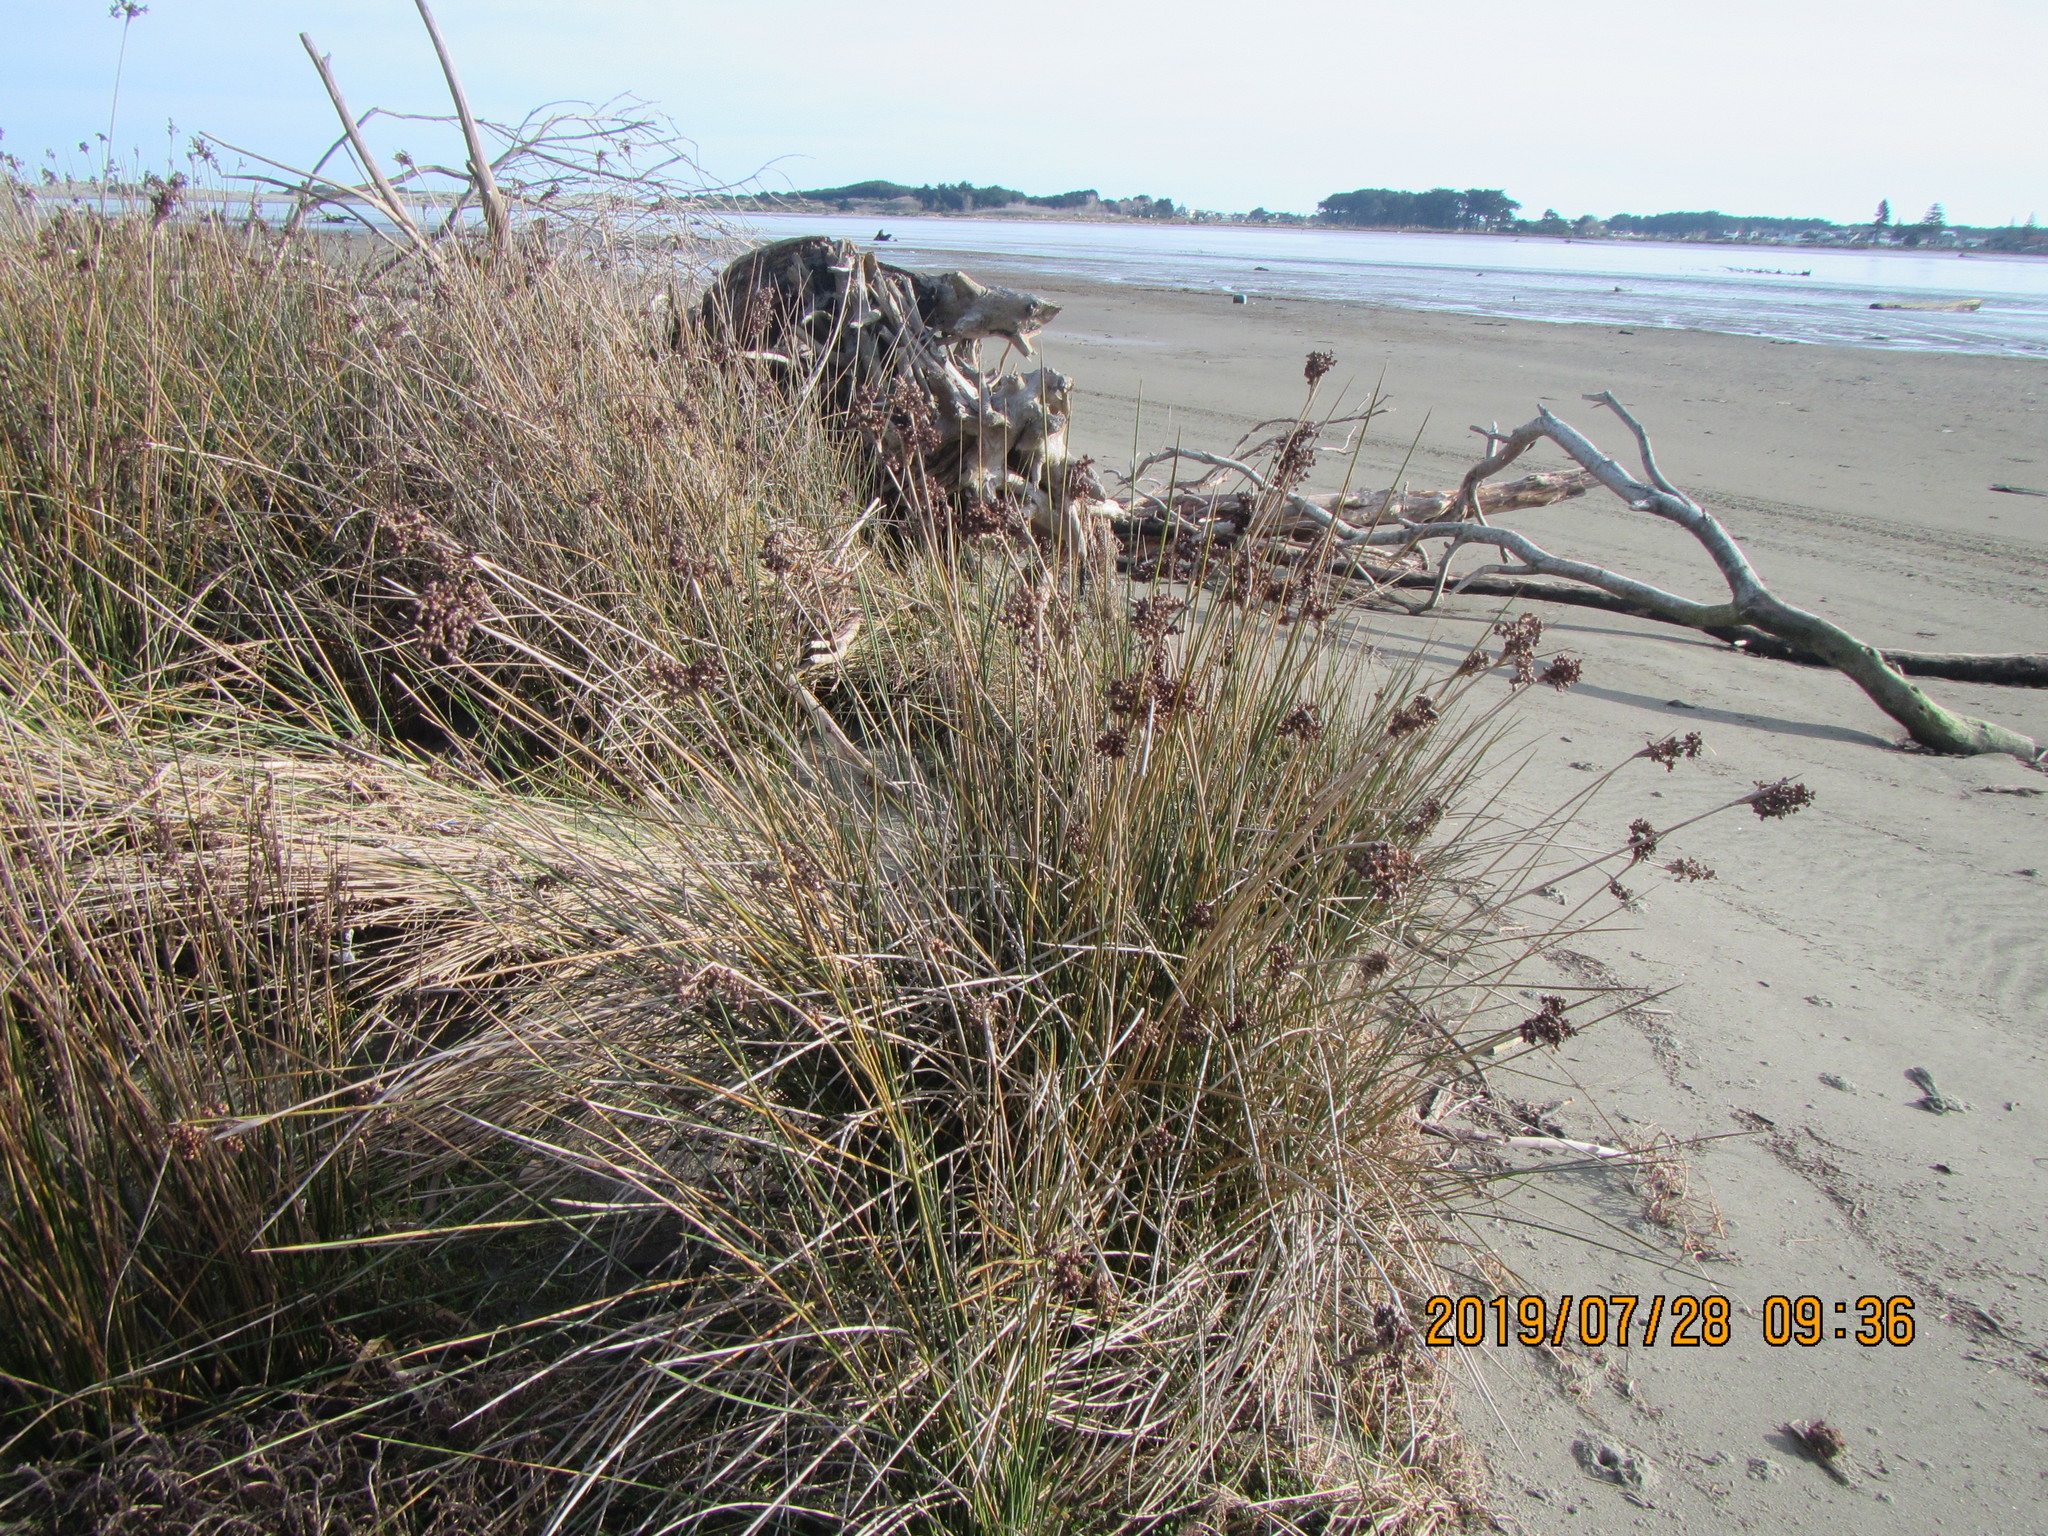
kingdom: Plantae
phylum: Tracheophyta
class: Liliopsida
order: Poales
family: Juncaceae
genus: Juncus
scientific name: Juncus acutus
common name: Sharp rush
